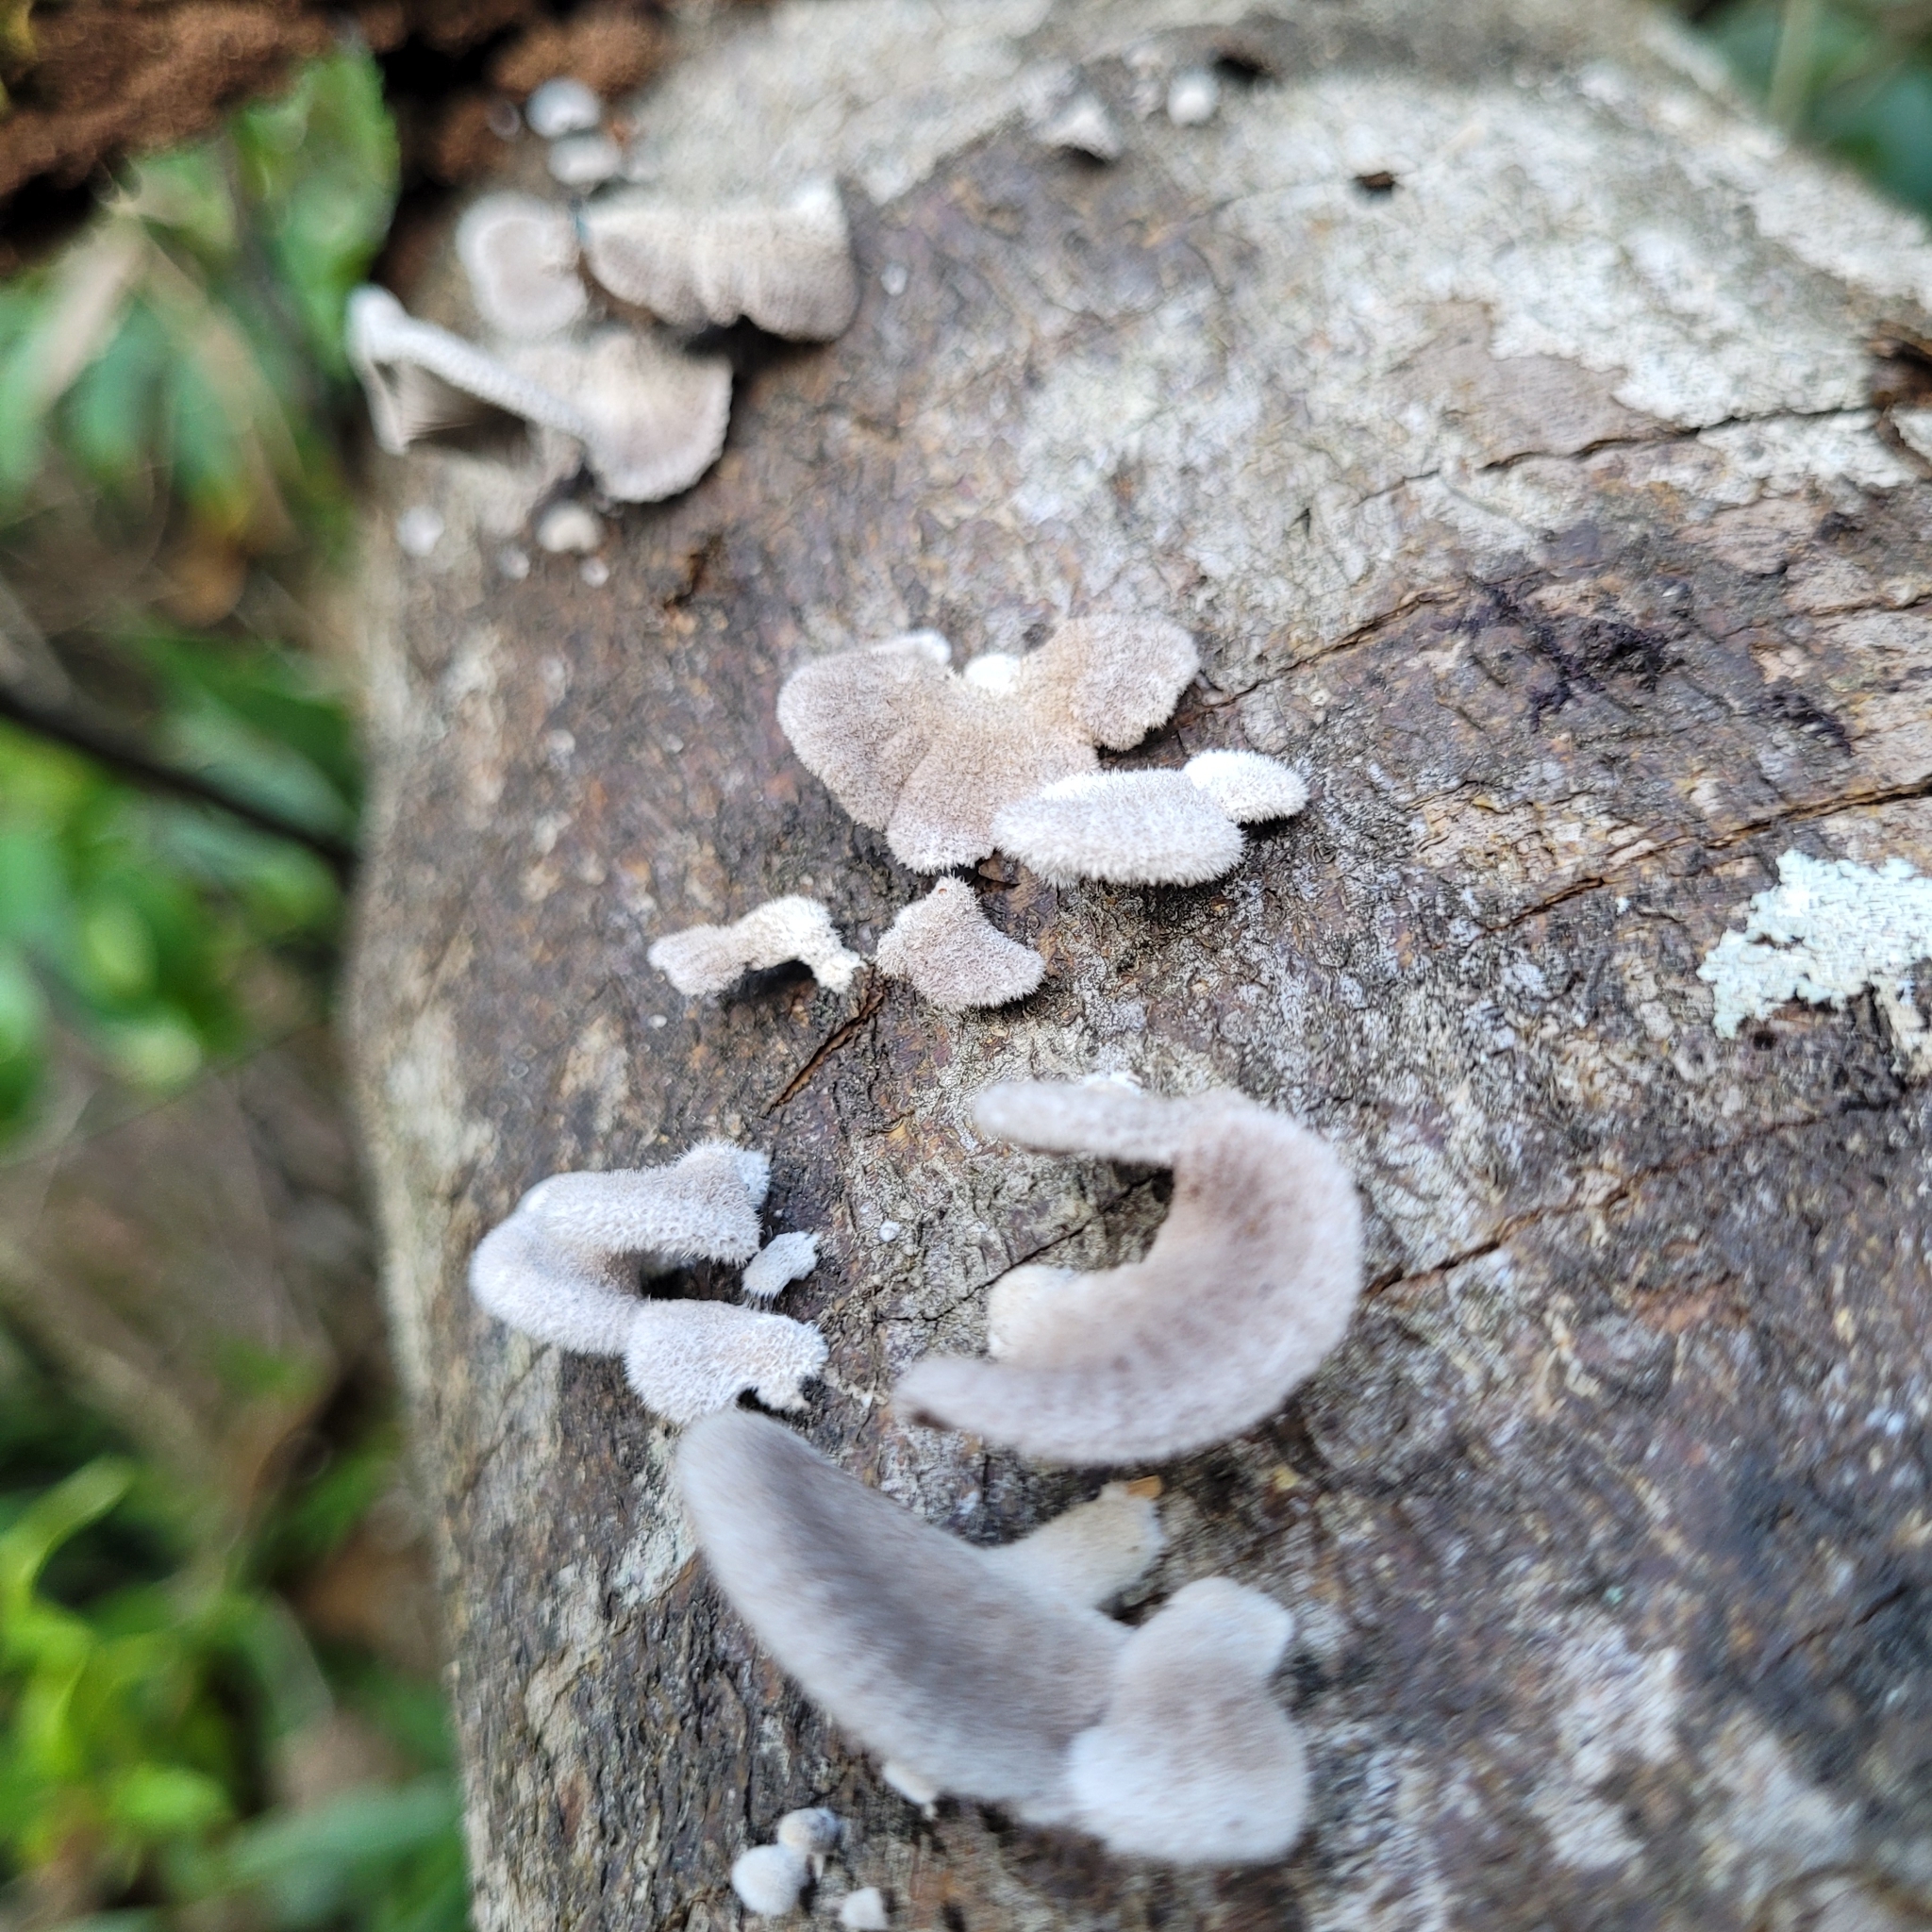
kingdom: Fungi
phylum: Basidiomycota
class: Agaricomycetes
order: Agaricales
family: Schizophyllaceae
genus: Schizophyllum
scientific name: Schizophyllum commune
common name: Common porecrust
